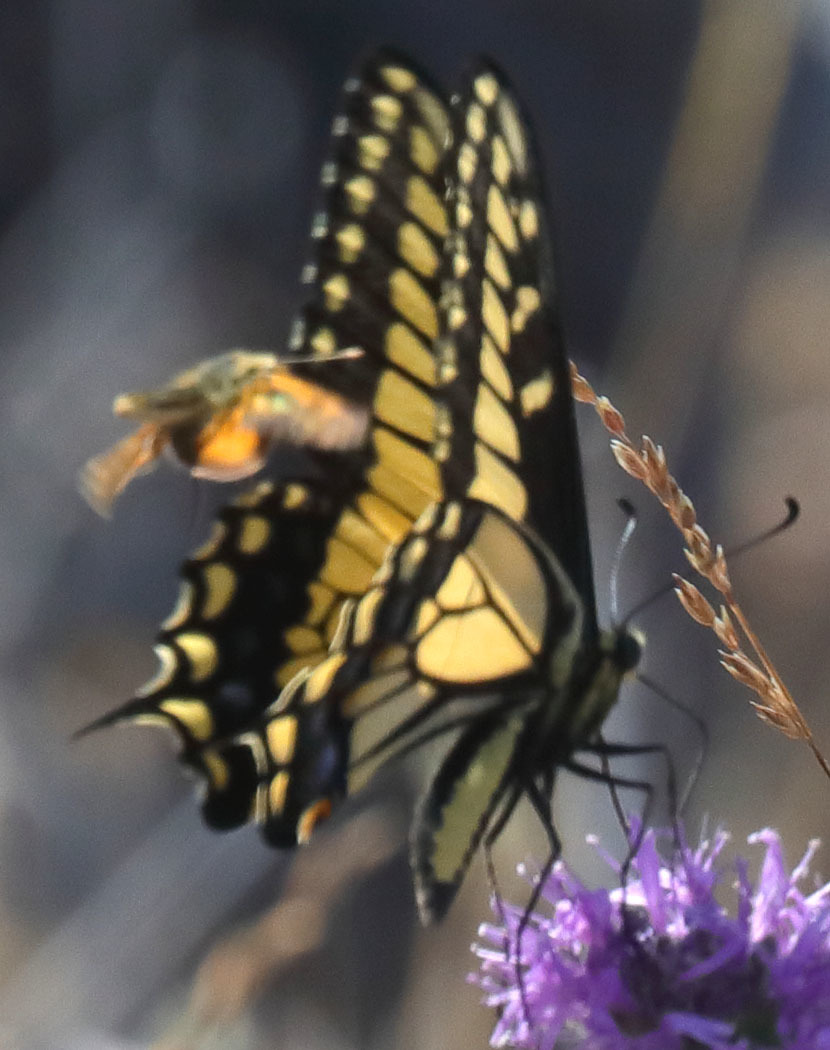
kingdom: Animalia
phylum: Arthropoda
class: Insecta
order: Lepidoptera
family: Hesperiidae
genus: Ochlodes
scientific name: Ochlodes agricola
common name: Rural skipper
